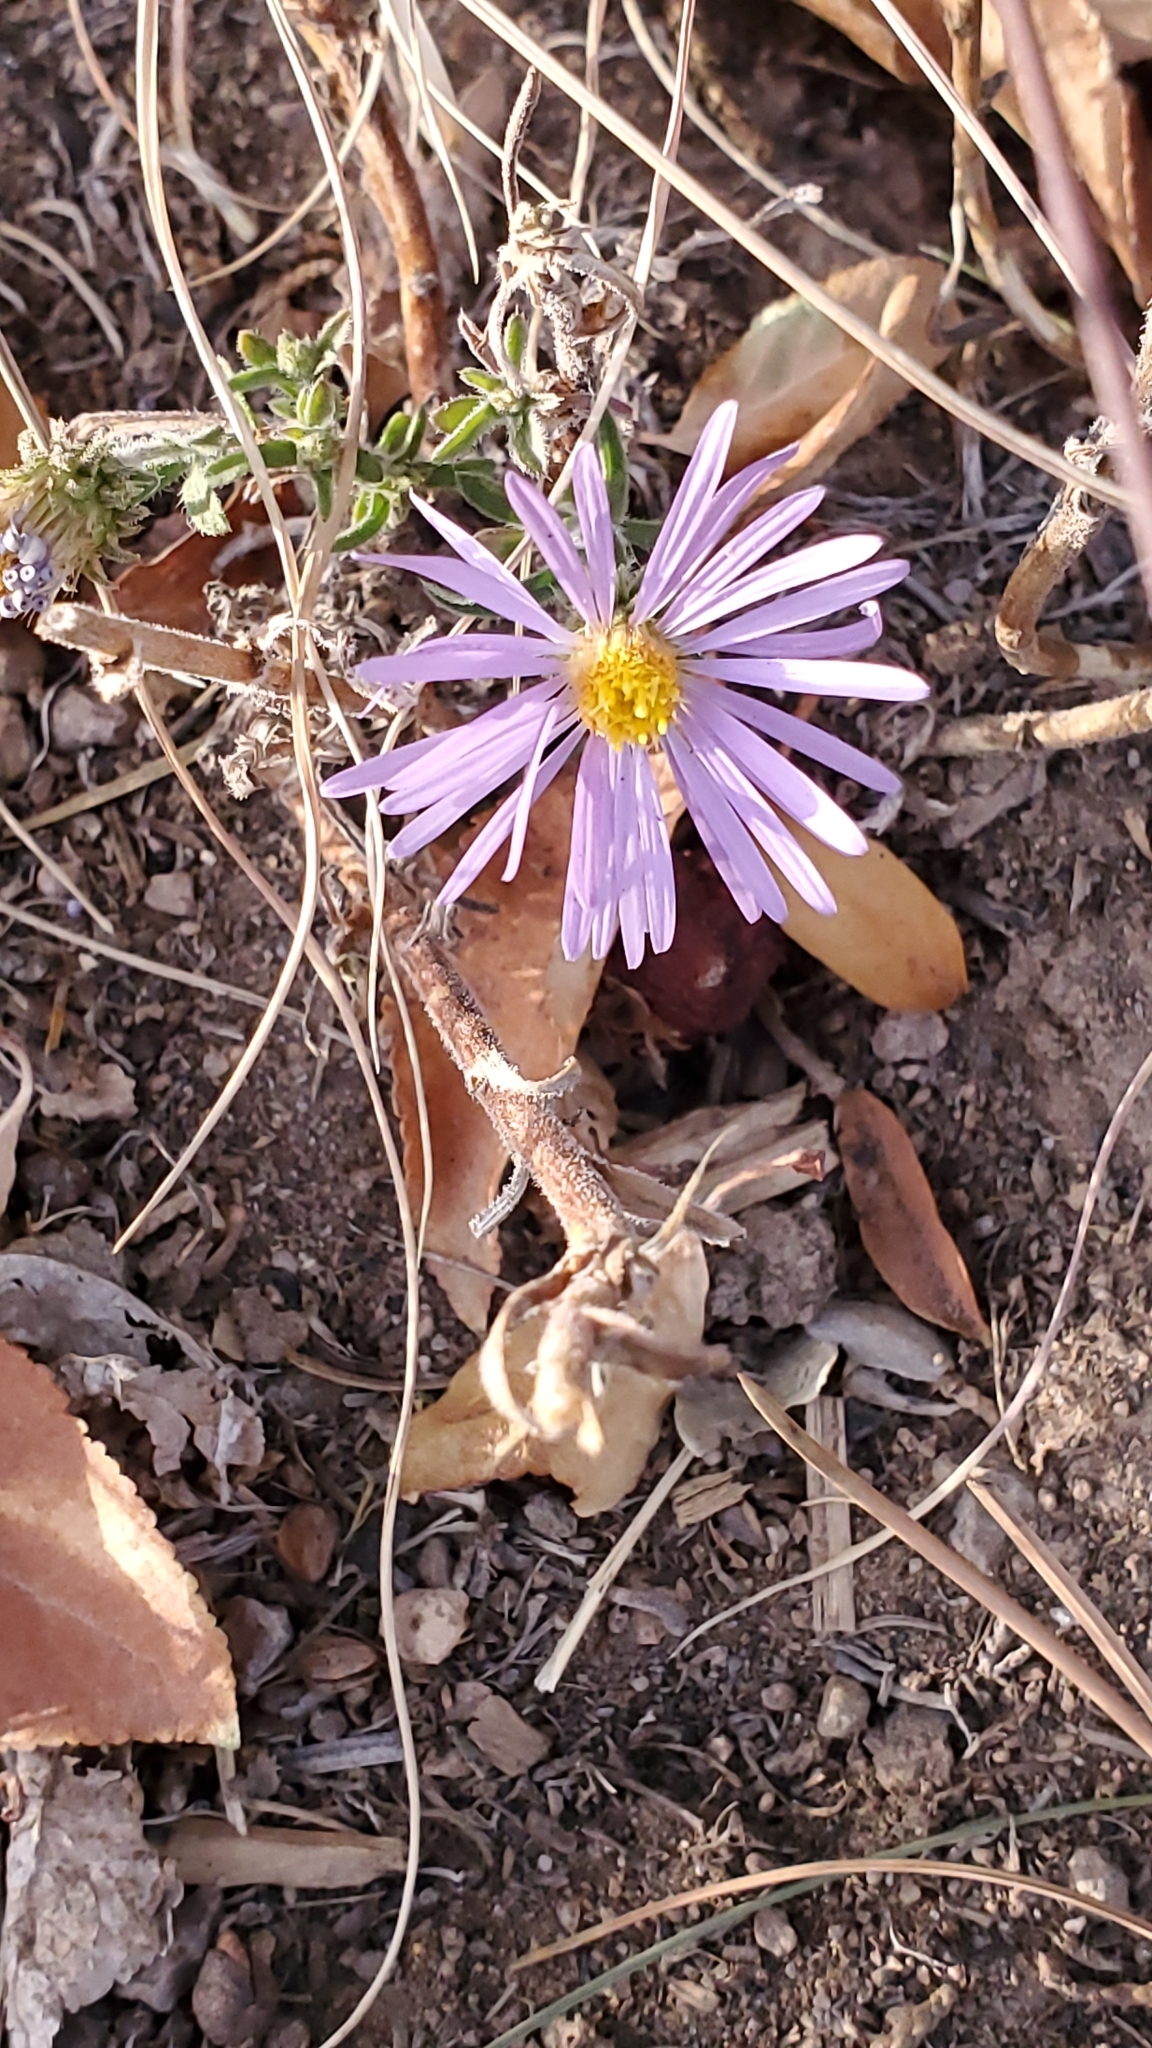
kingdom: Plantae
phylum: Tracheophyta
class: Magnoliopsida
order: Asterales
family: Asteraceae
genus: Dieteria
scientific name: Dieteria canescens
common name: Hoary-aster
